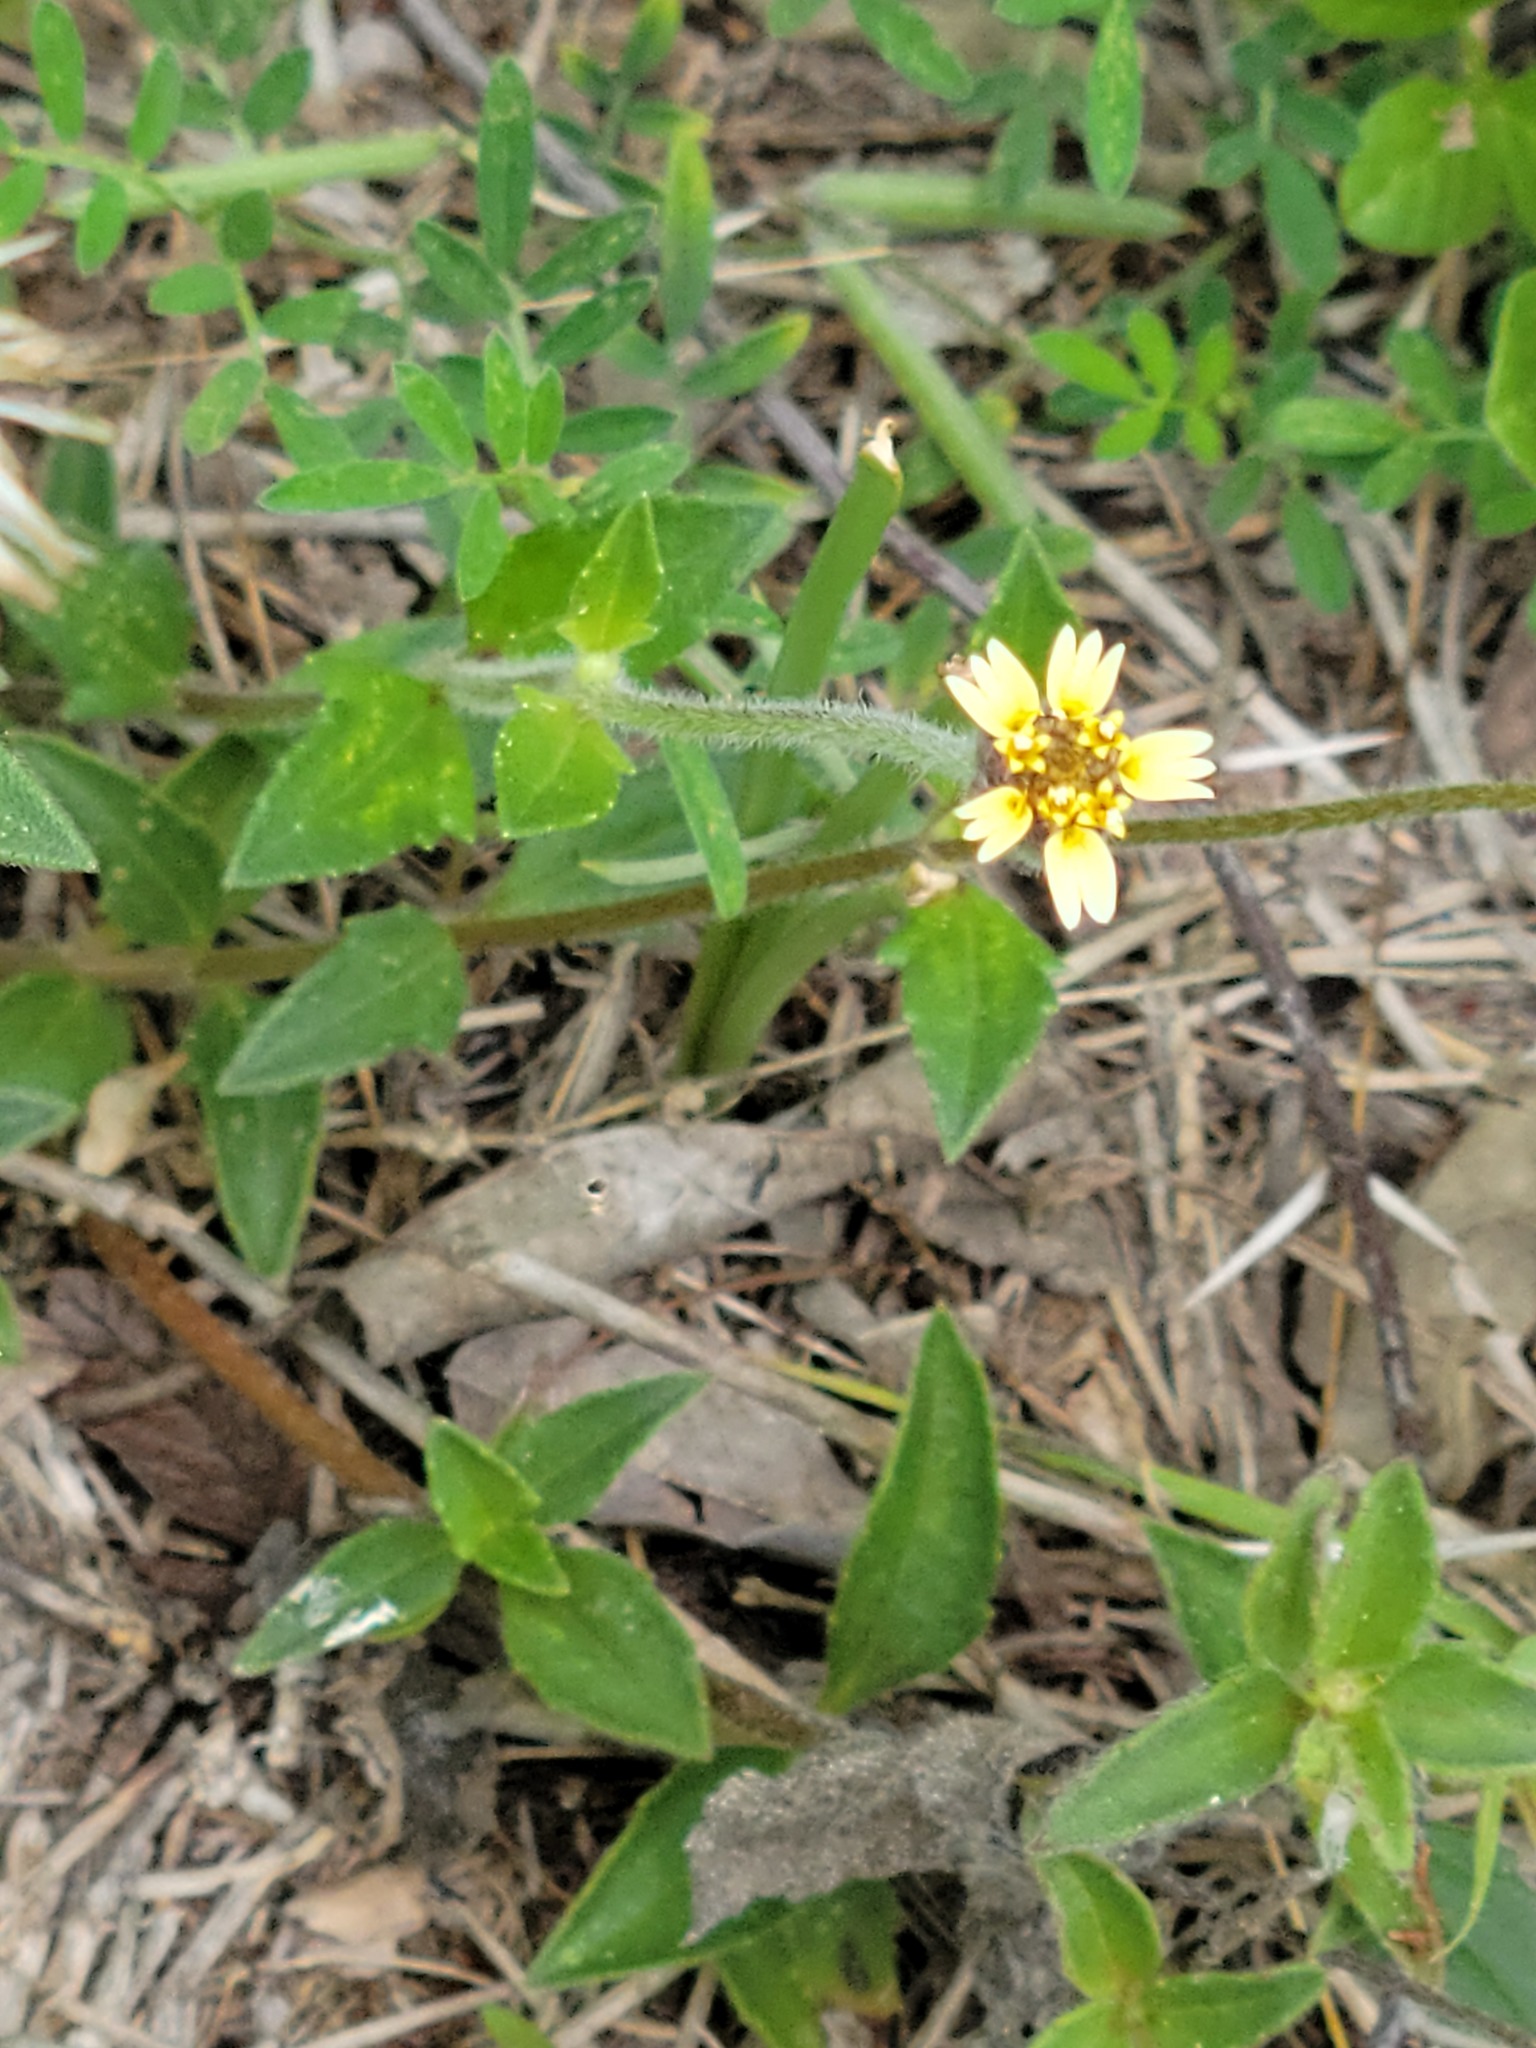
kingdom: Plantae
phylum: Tracheophyta
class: Magnoliopsida
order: Asterales
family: Asteraceae
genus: Tridax
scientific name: Tridax procumbens
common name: Coatbuttons
